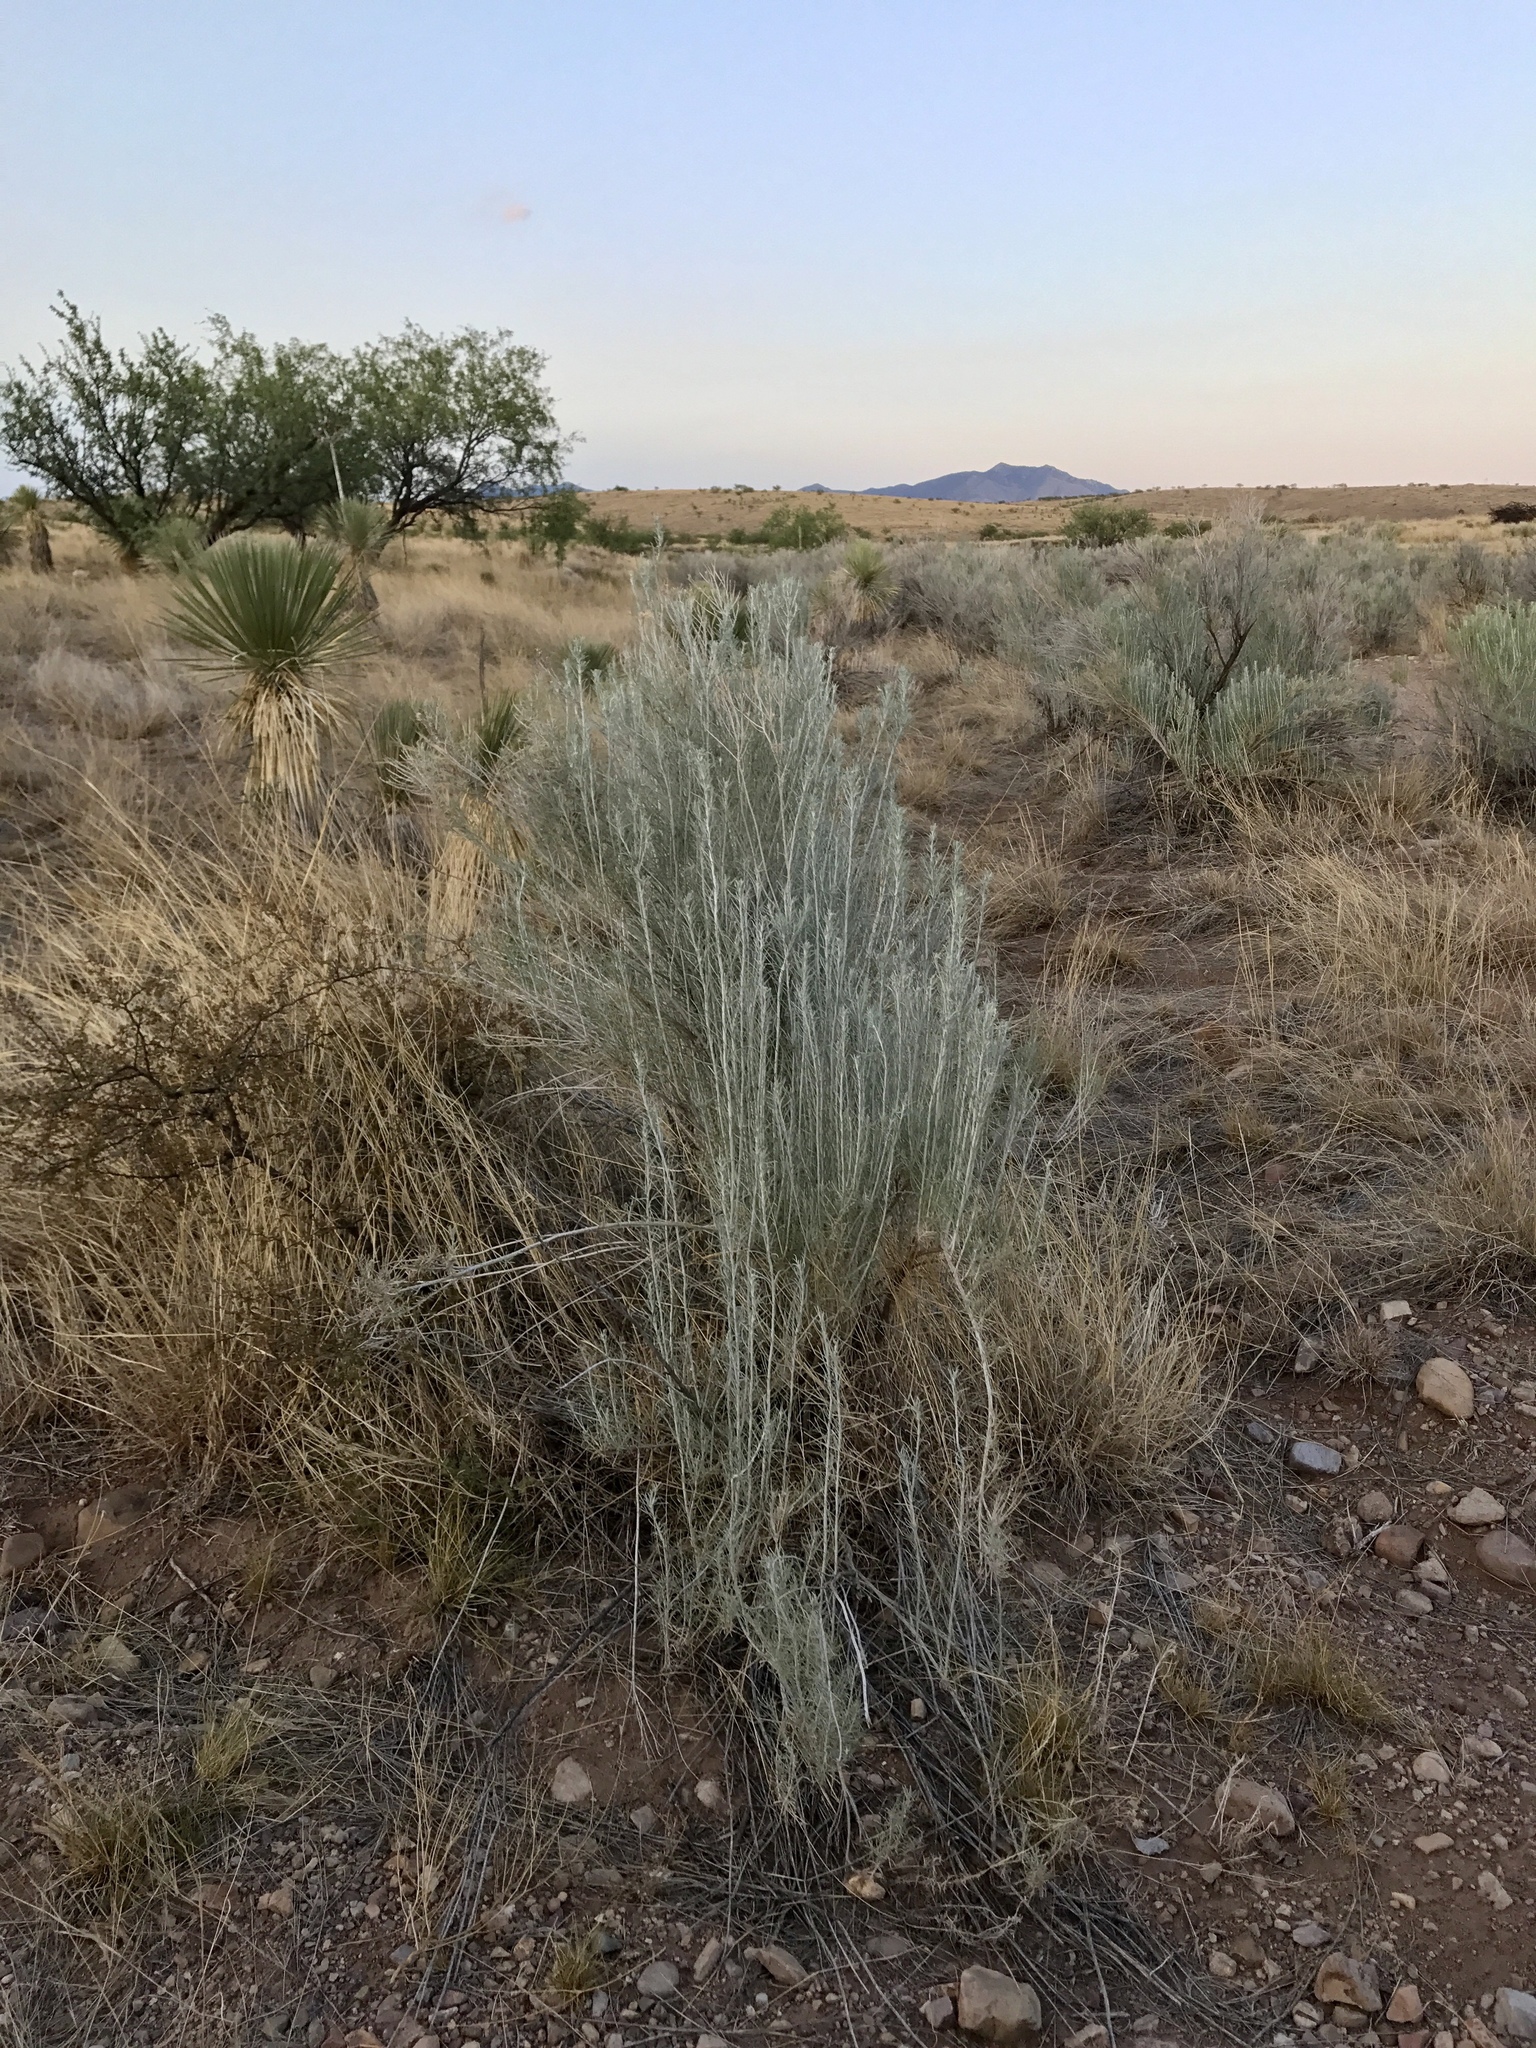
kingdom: Plantae
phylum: Tracheophyta
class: Magnoliopsida
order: Asterales
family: Asteraceae
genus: Ericameria
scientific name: Ericameria nauseosa
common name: Rubber rabbitbrush
